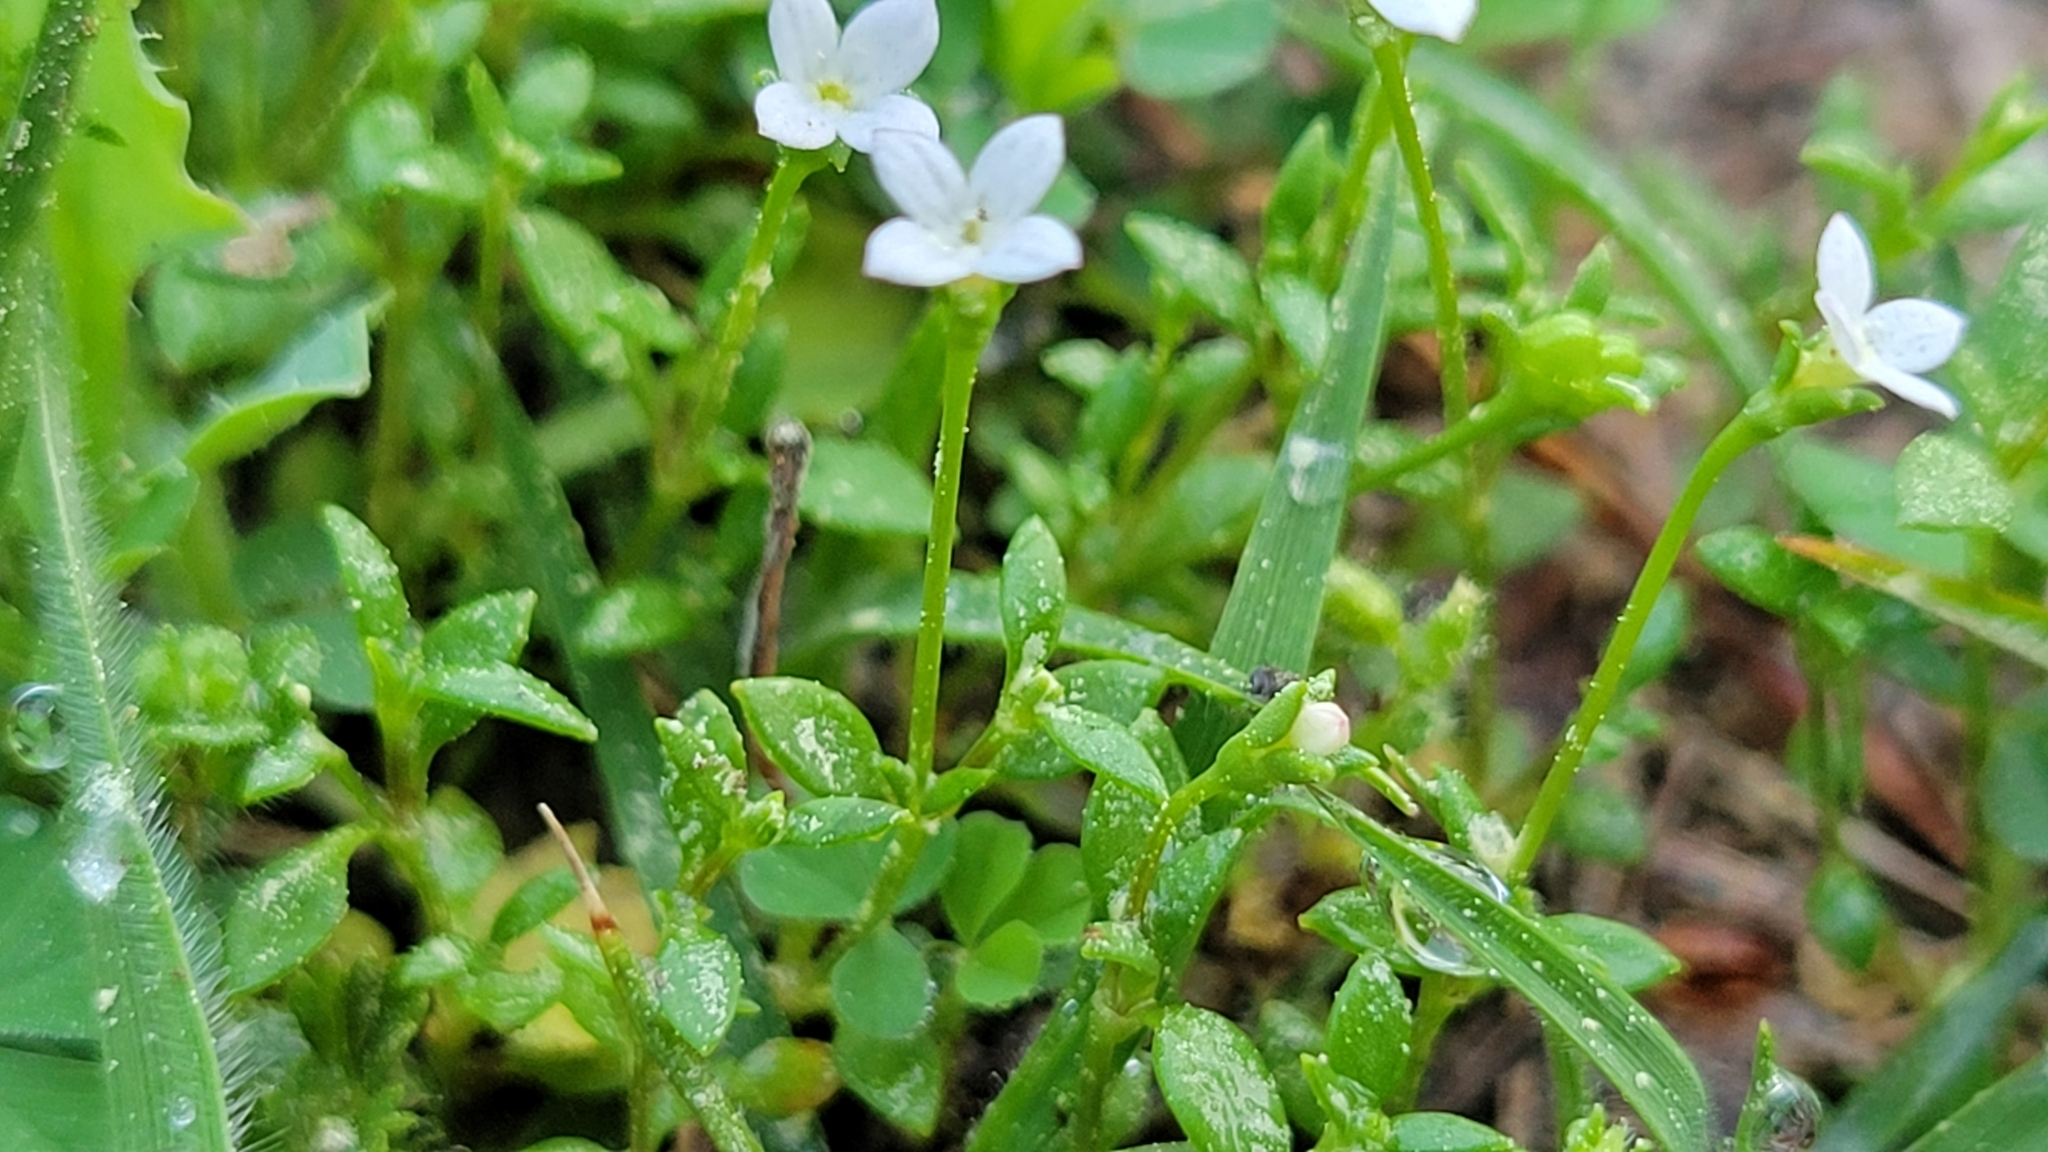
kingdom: Plantae
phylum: Tracheophyta
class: Magnoliopsida
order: Gentianales
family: Rubiaceae
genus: Houstonia
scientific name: Houstonia micrantha
